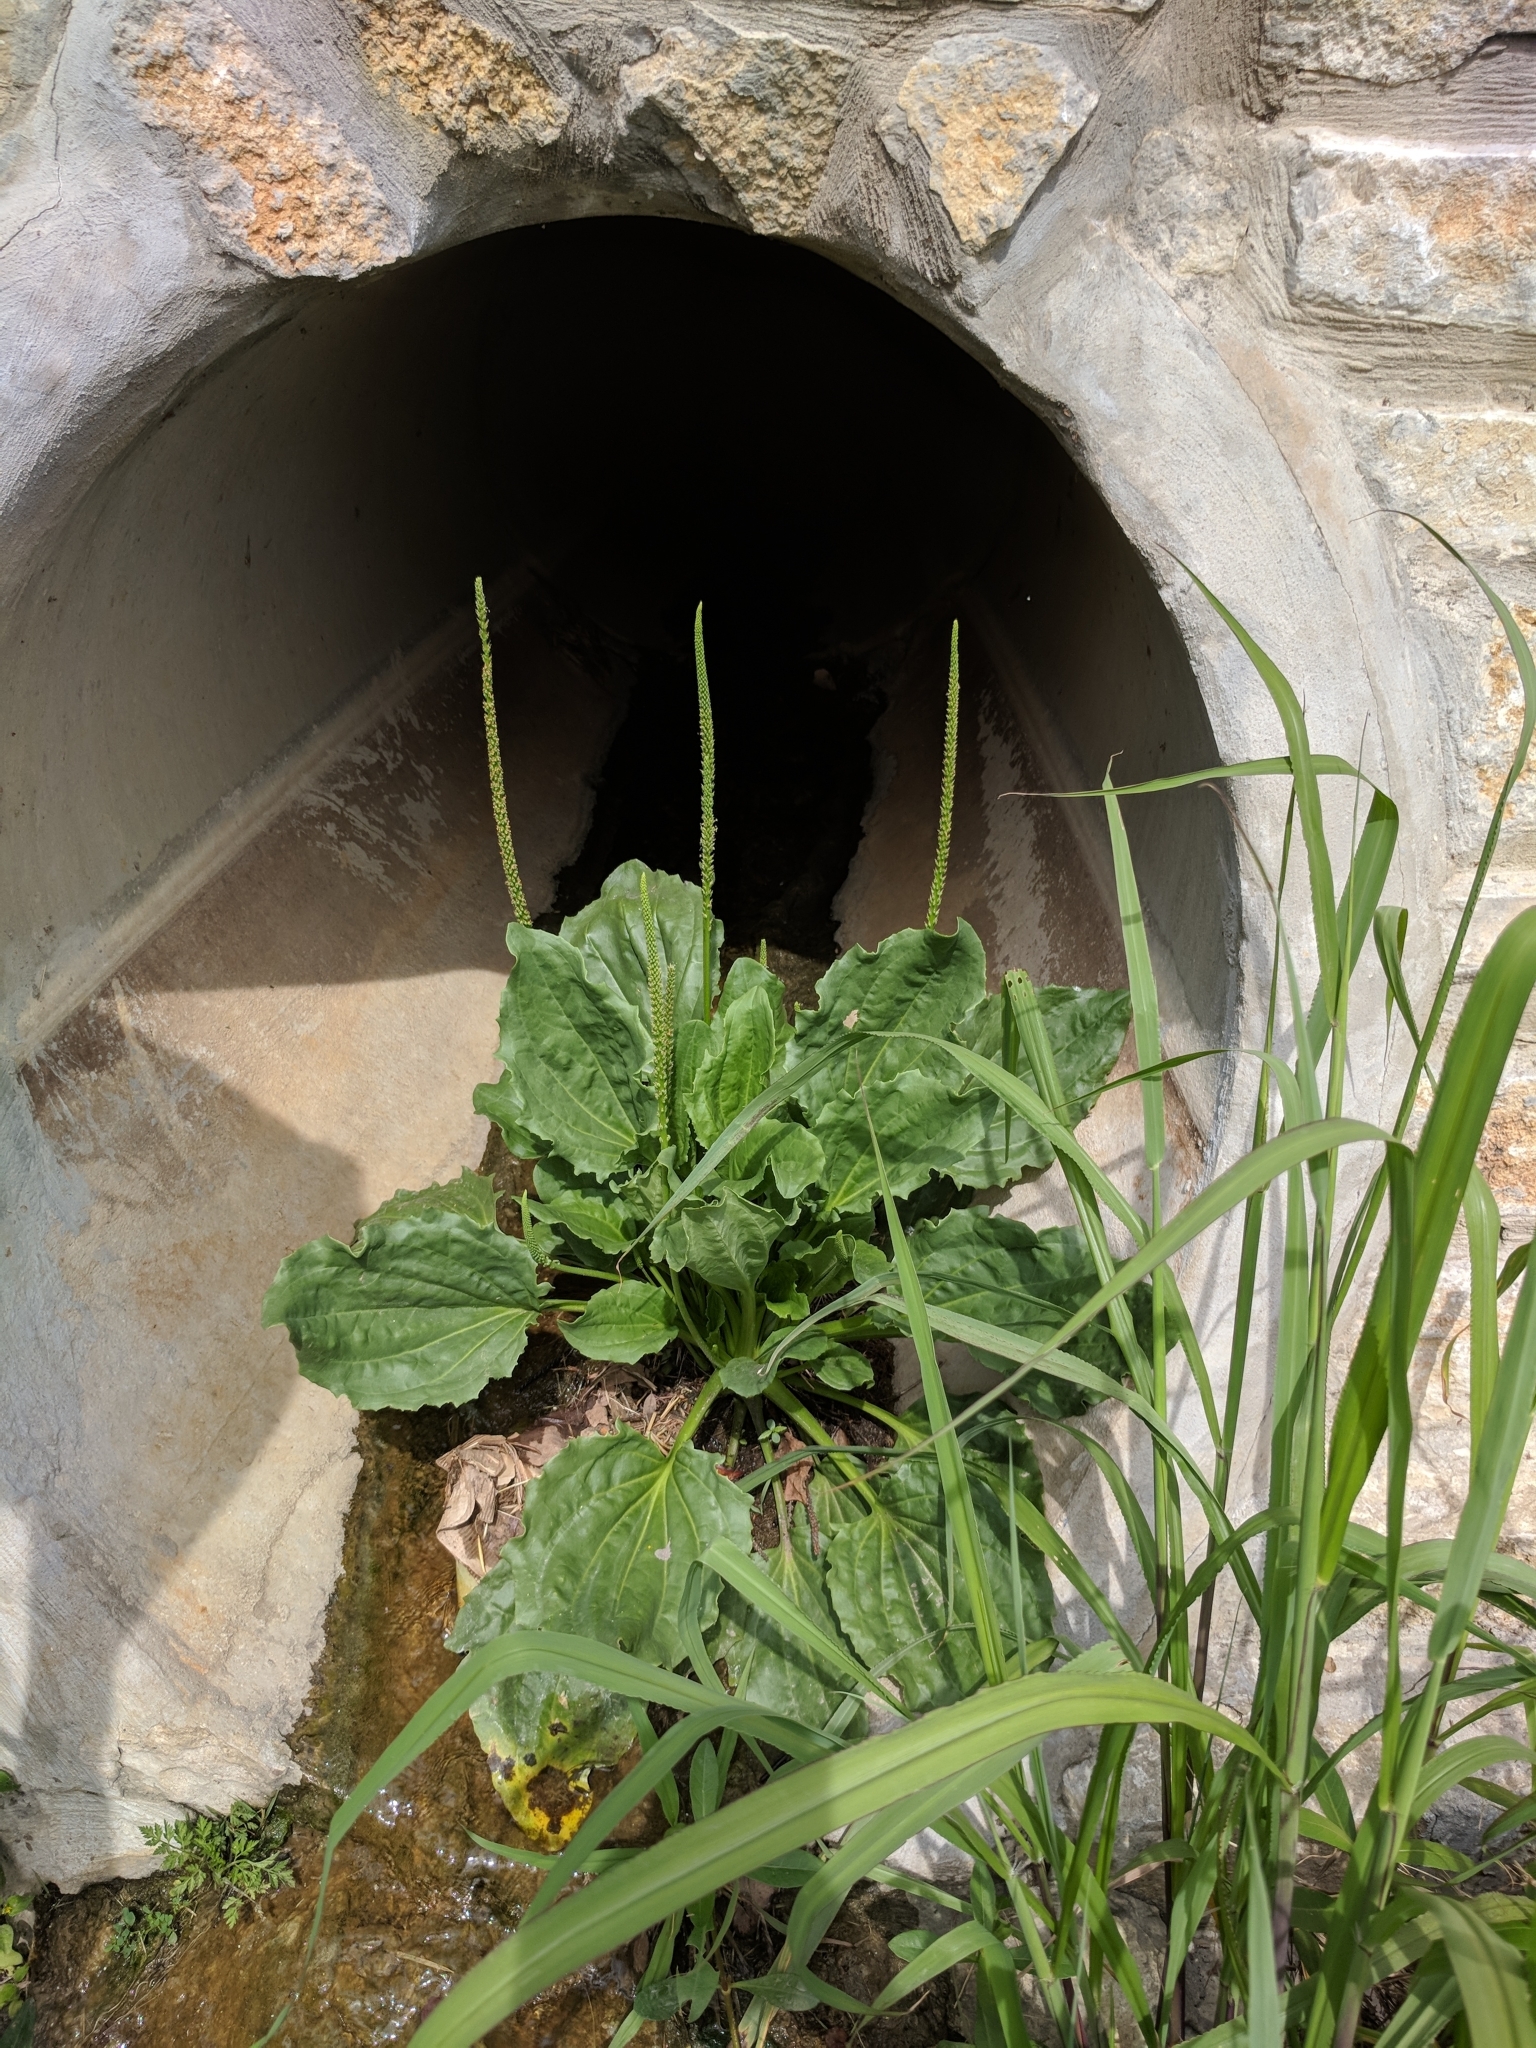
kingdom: Plantae
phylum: Tracheophyta
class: Magnoliopsida
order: Lamiales
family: Plantaginaceae
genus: Plantago
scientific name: Plantago major
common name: Common plantain
